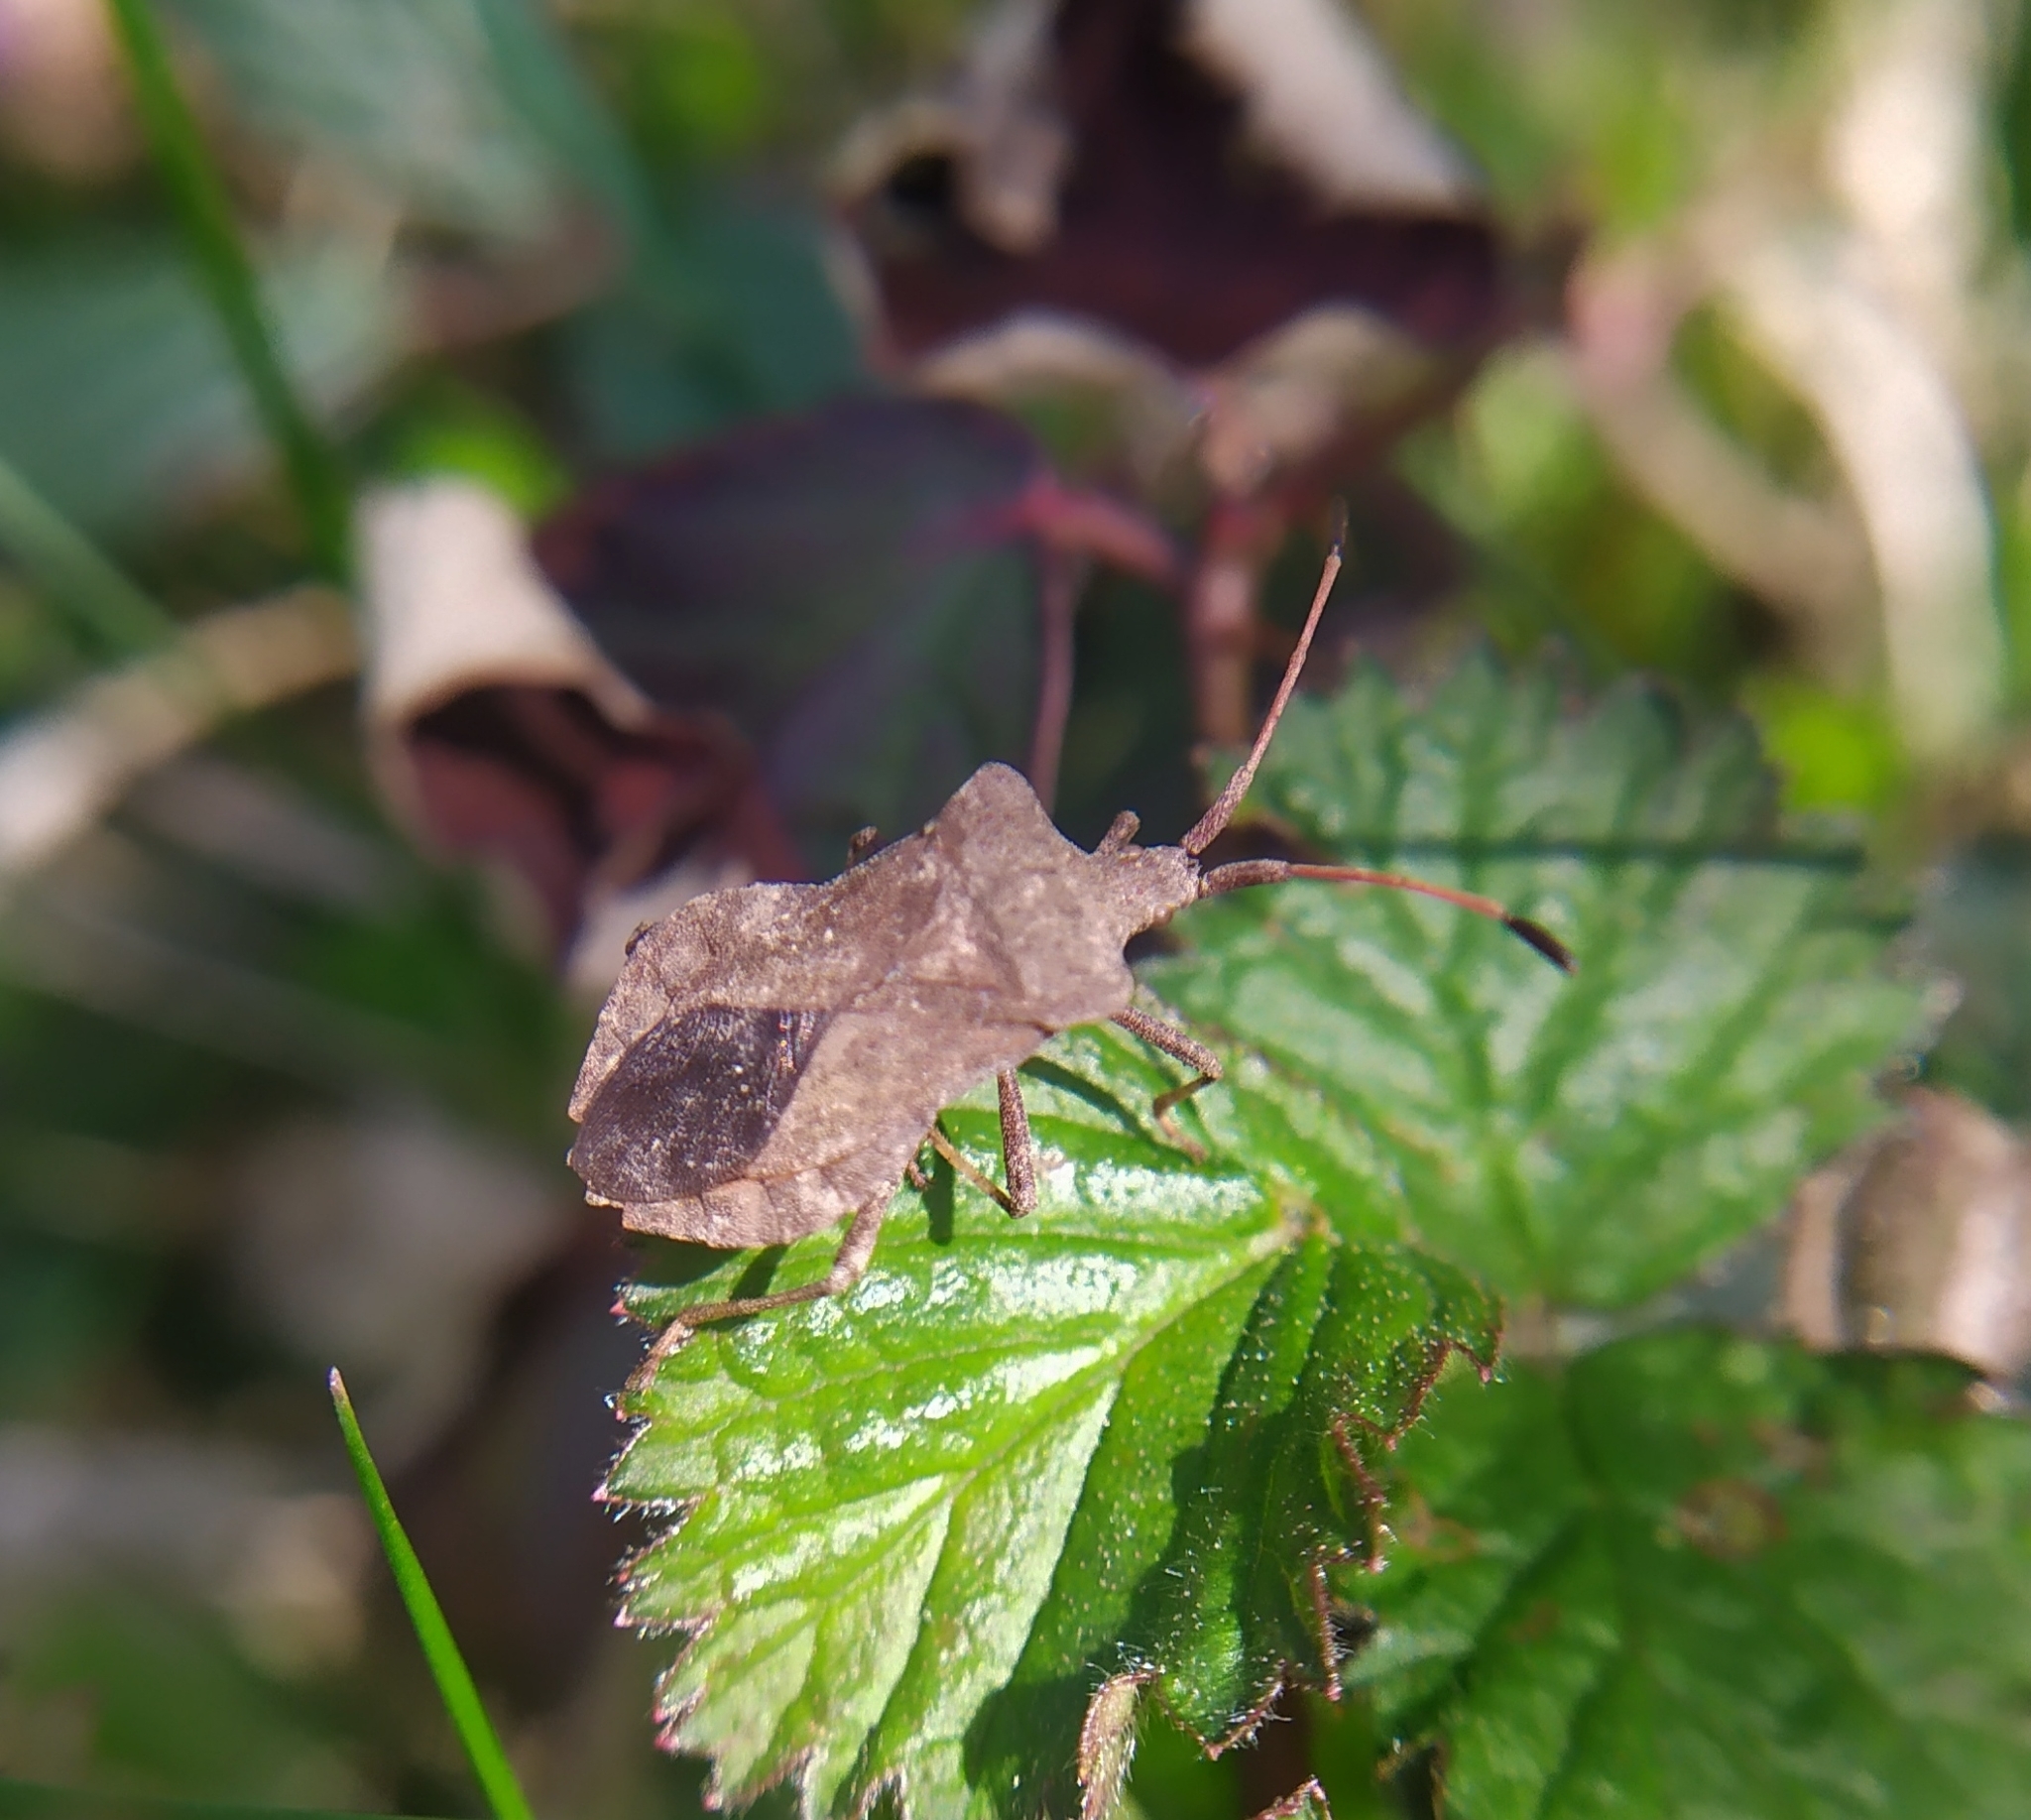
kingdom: Animalia
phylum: Arthropoda
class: Insecta
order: Hemiptera
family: Coreidae
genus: Coreus
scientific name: Coreus marginatus
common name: Dock bug
